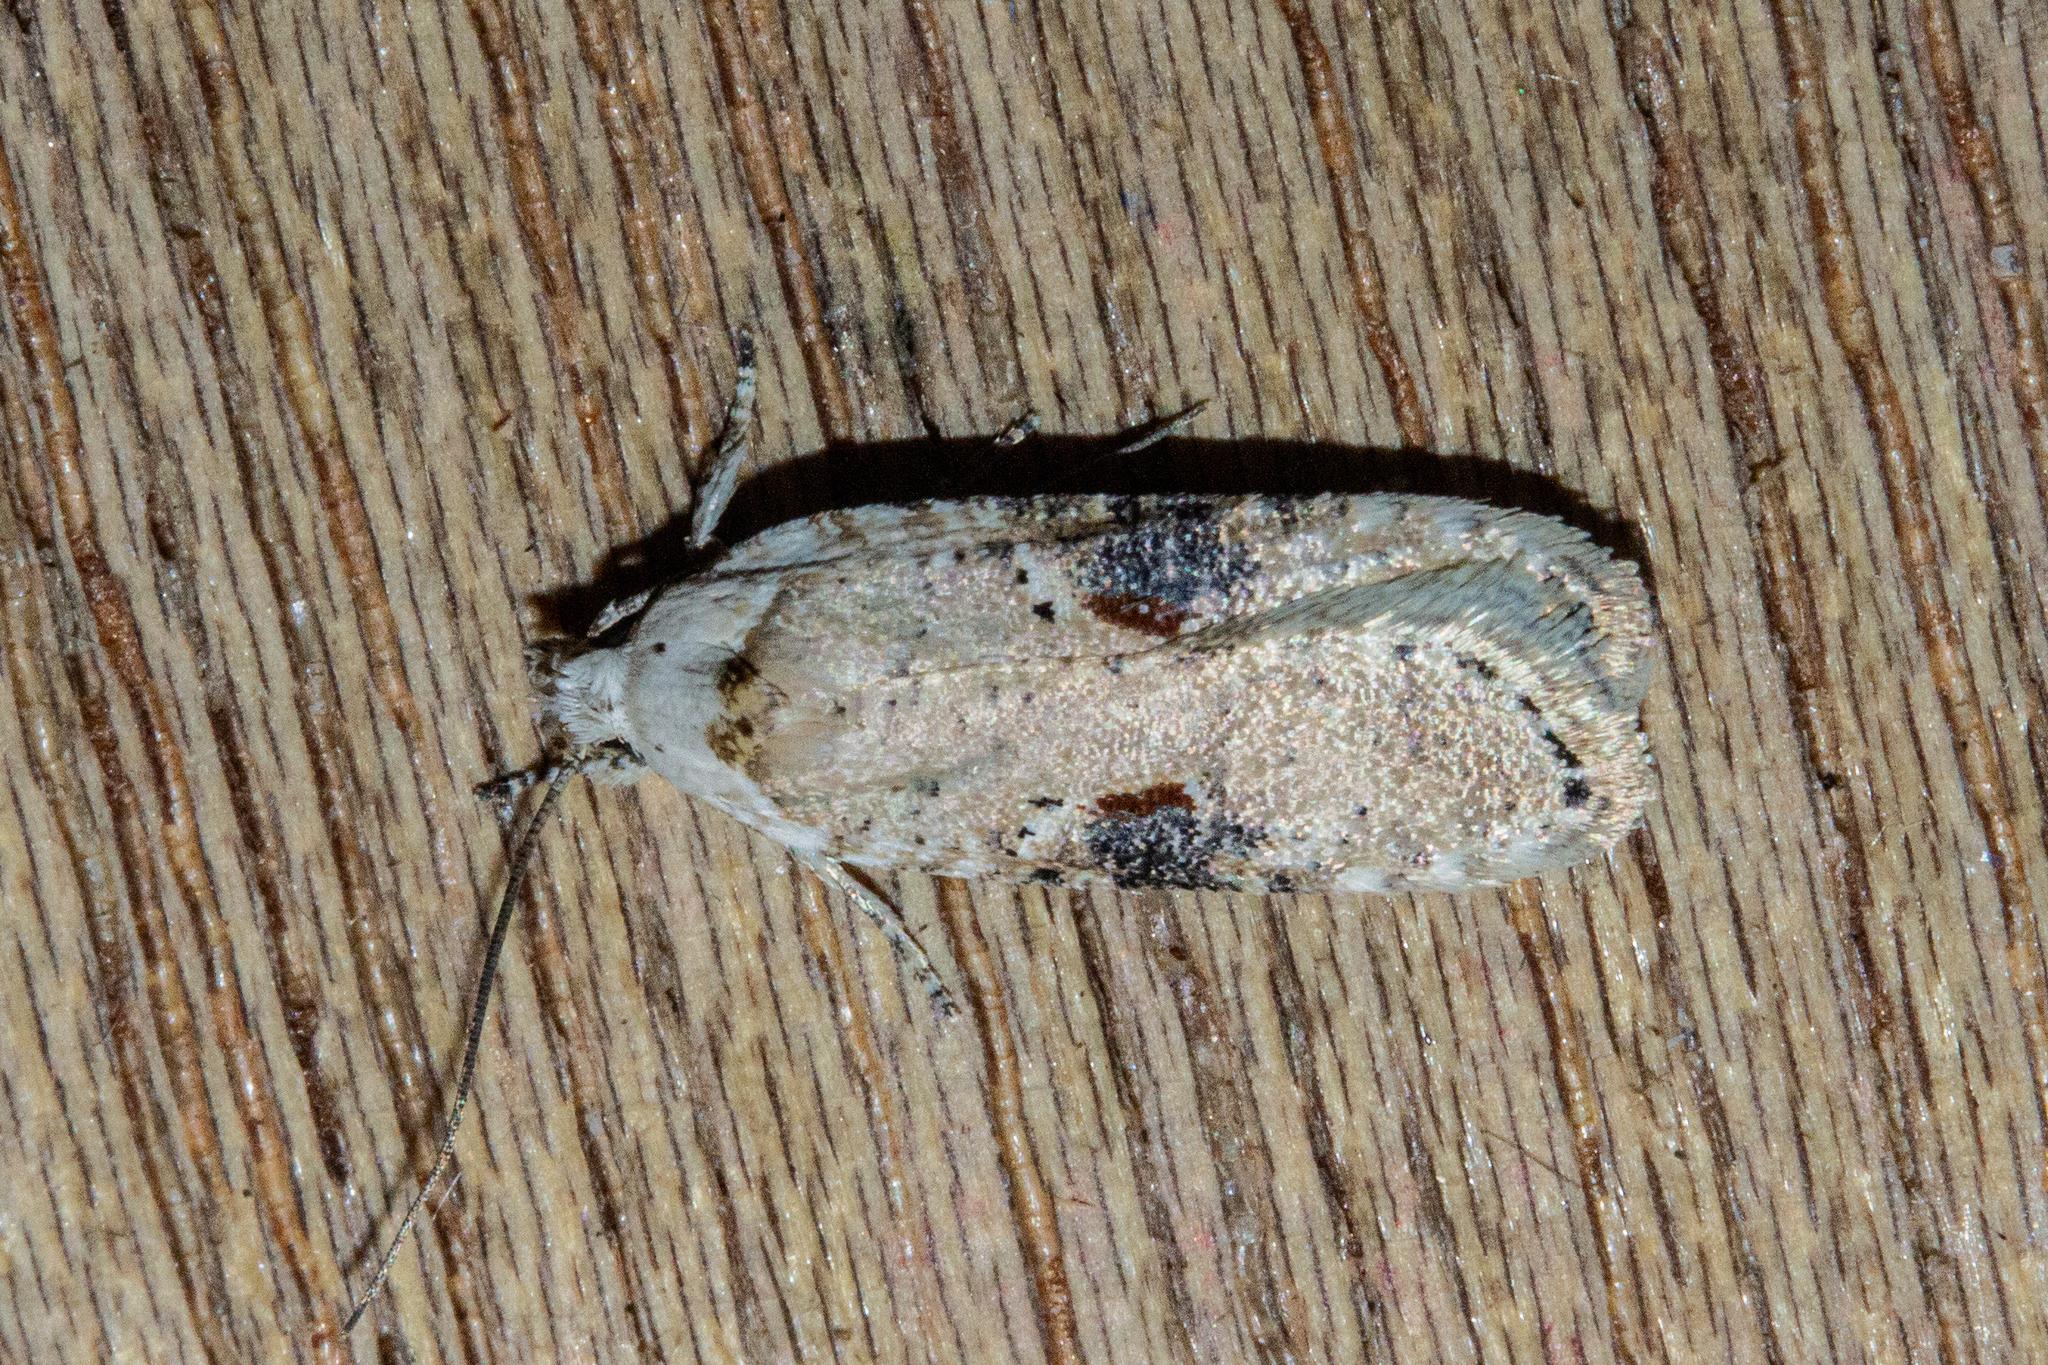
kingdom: Animalia
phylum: Arthropoda
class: Insecta
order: Lepidoptera
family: Depressariidae
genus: Agonopterix
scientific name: Agonopterix alstroemeriana
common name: Moth
